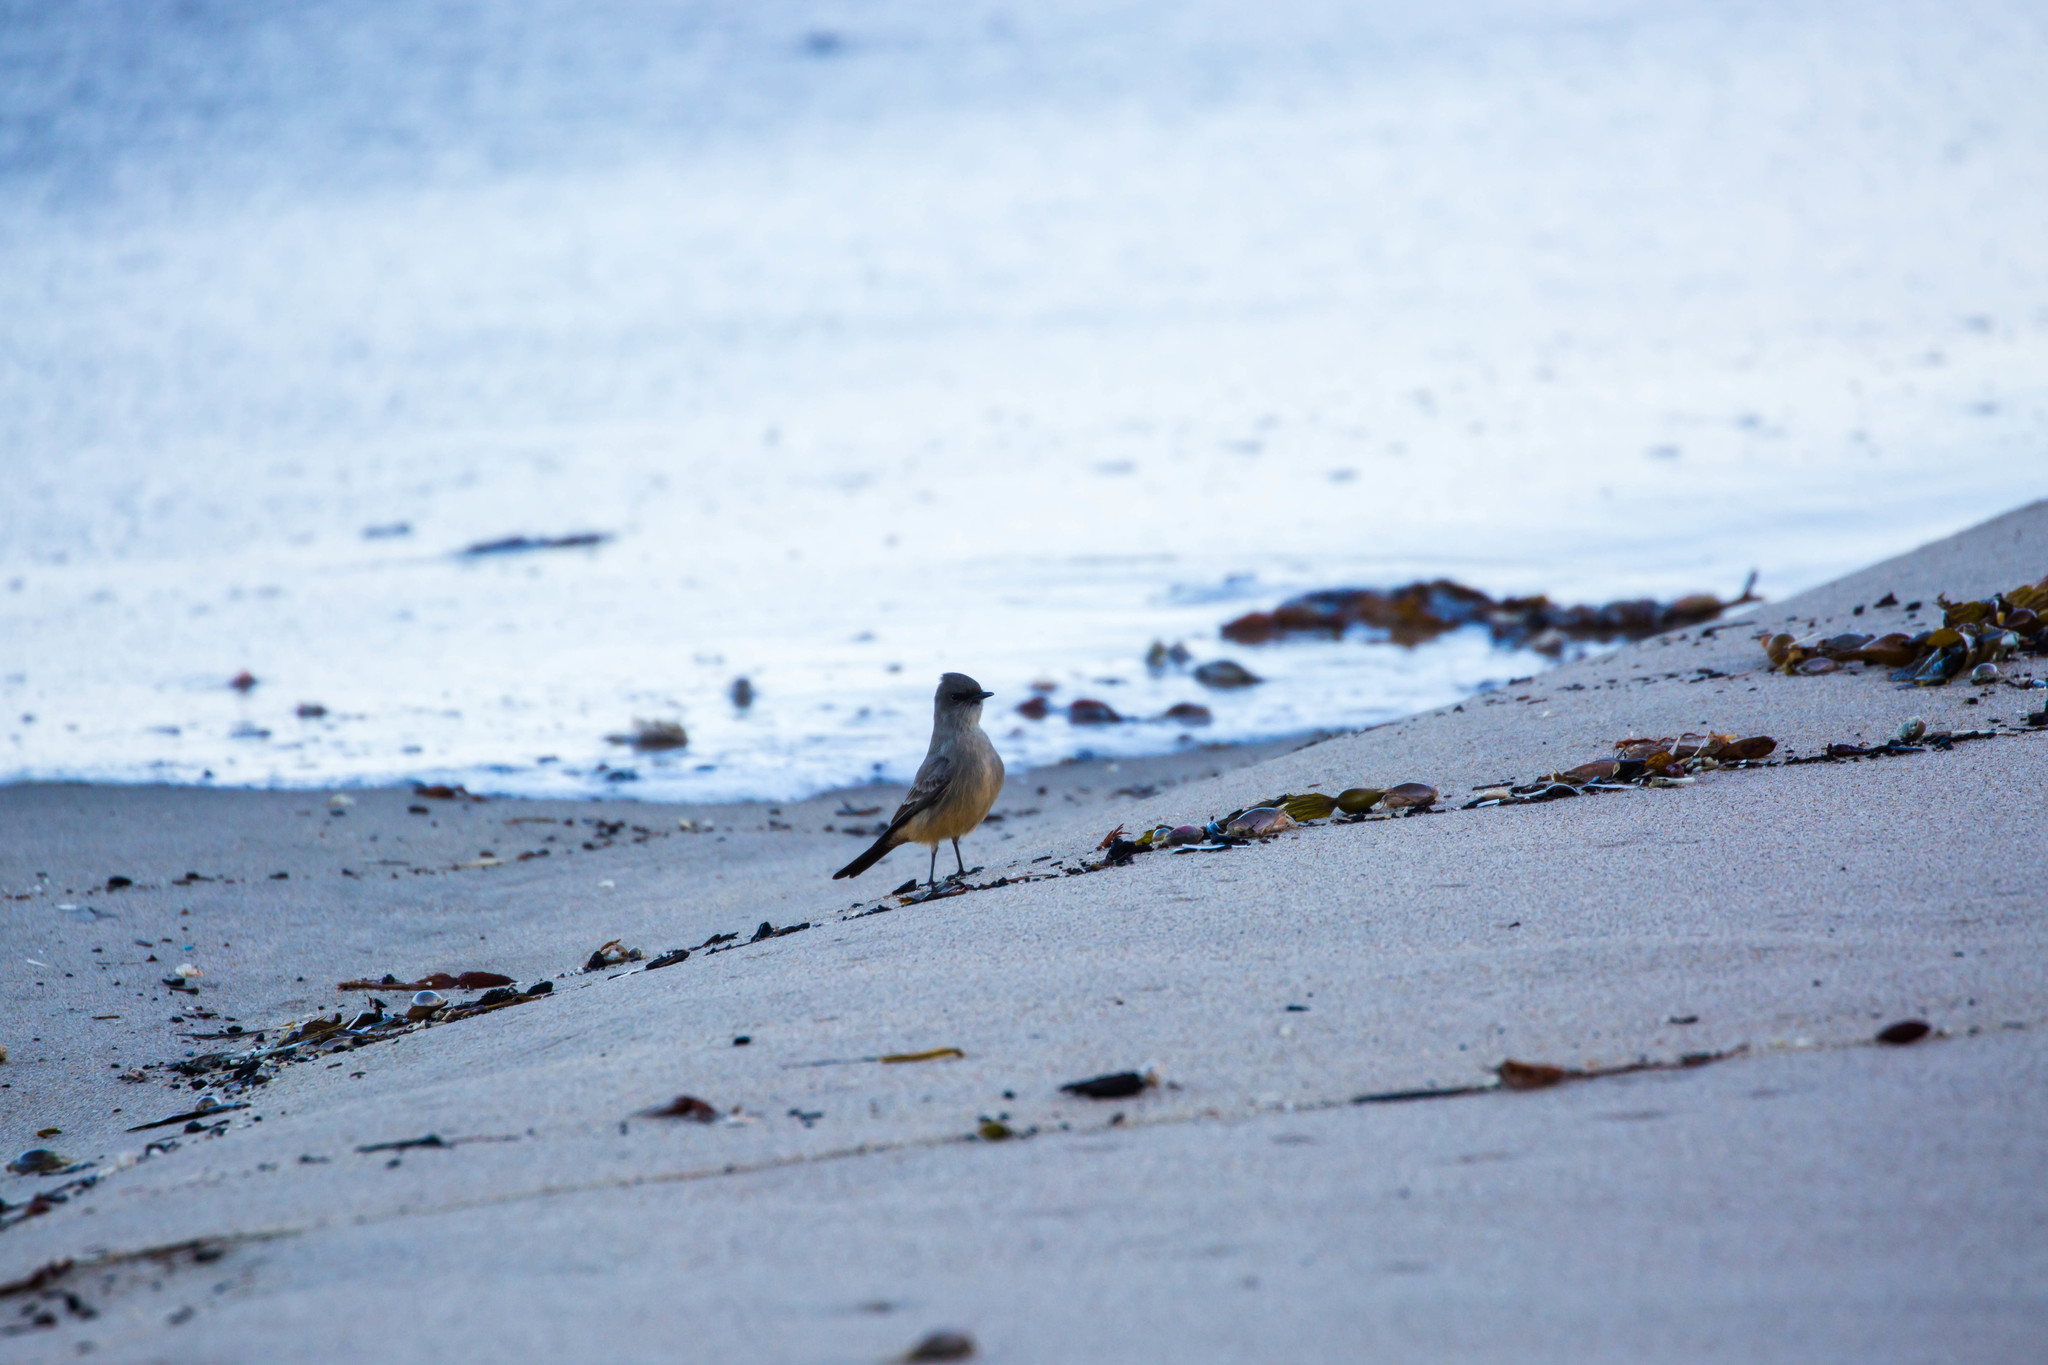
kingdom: Animalia
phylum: Chordata
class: Aves
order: Passeriformes
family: Tyrannidae
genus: Sayornis
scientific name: Sayornis saya
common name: Say's phoebe
